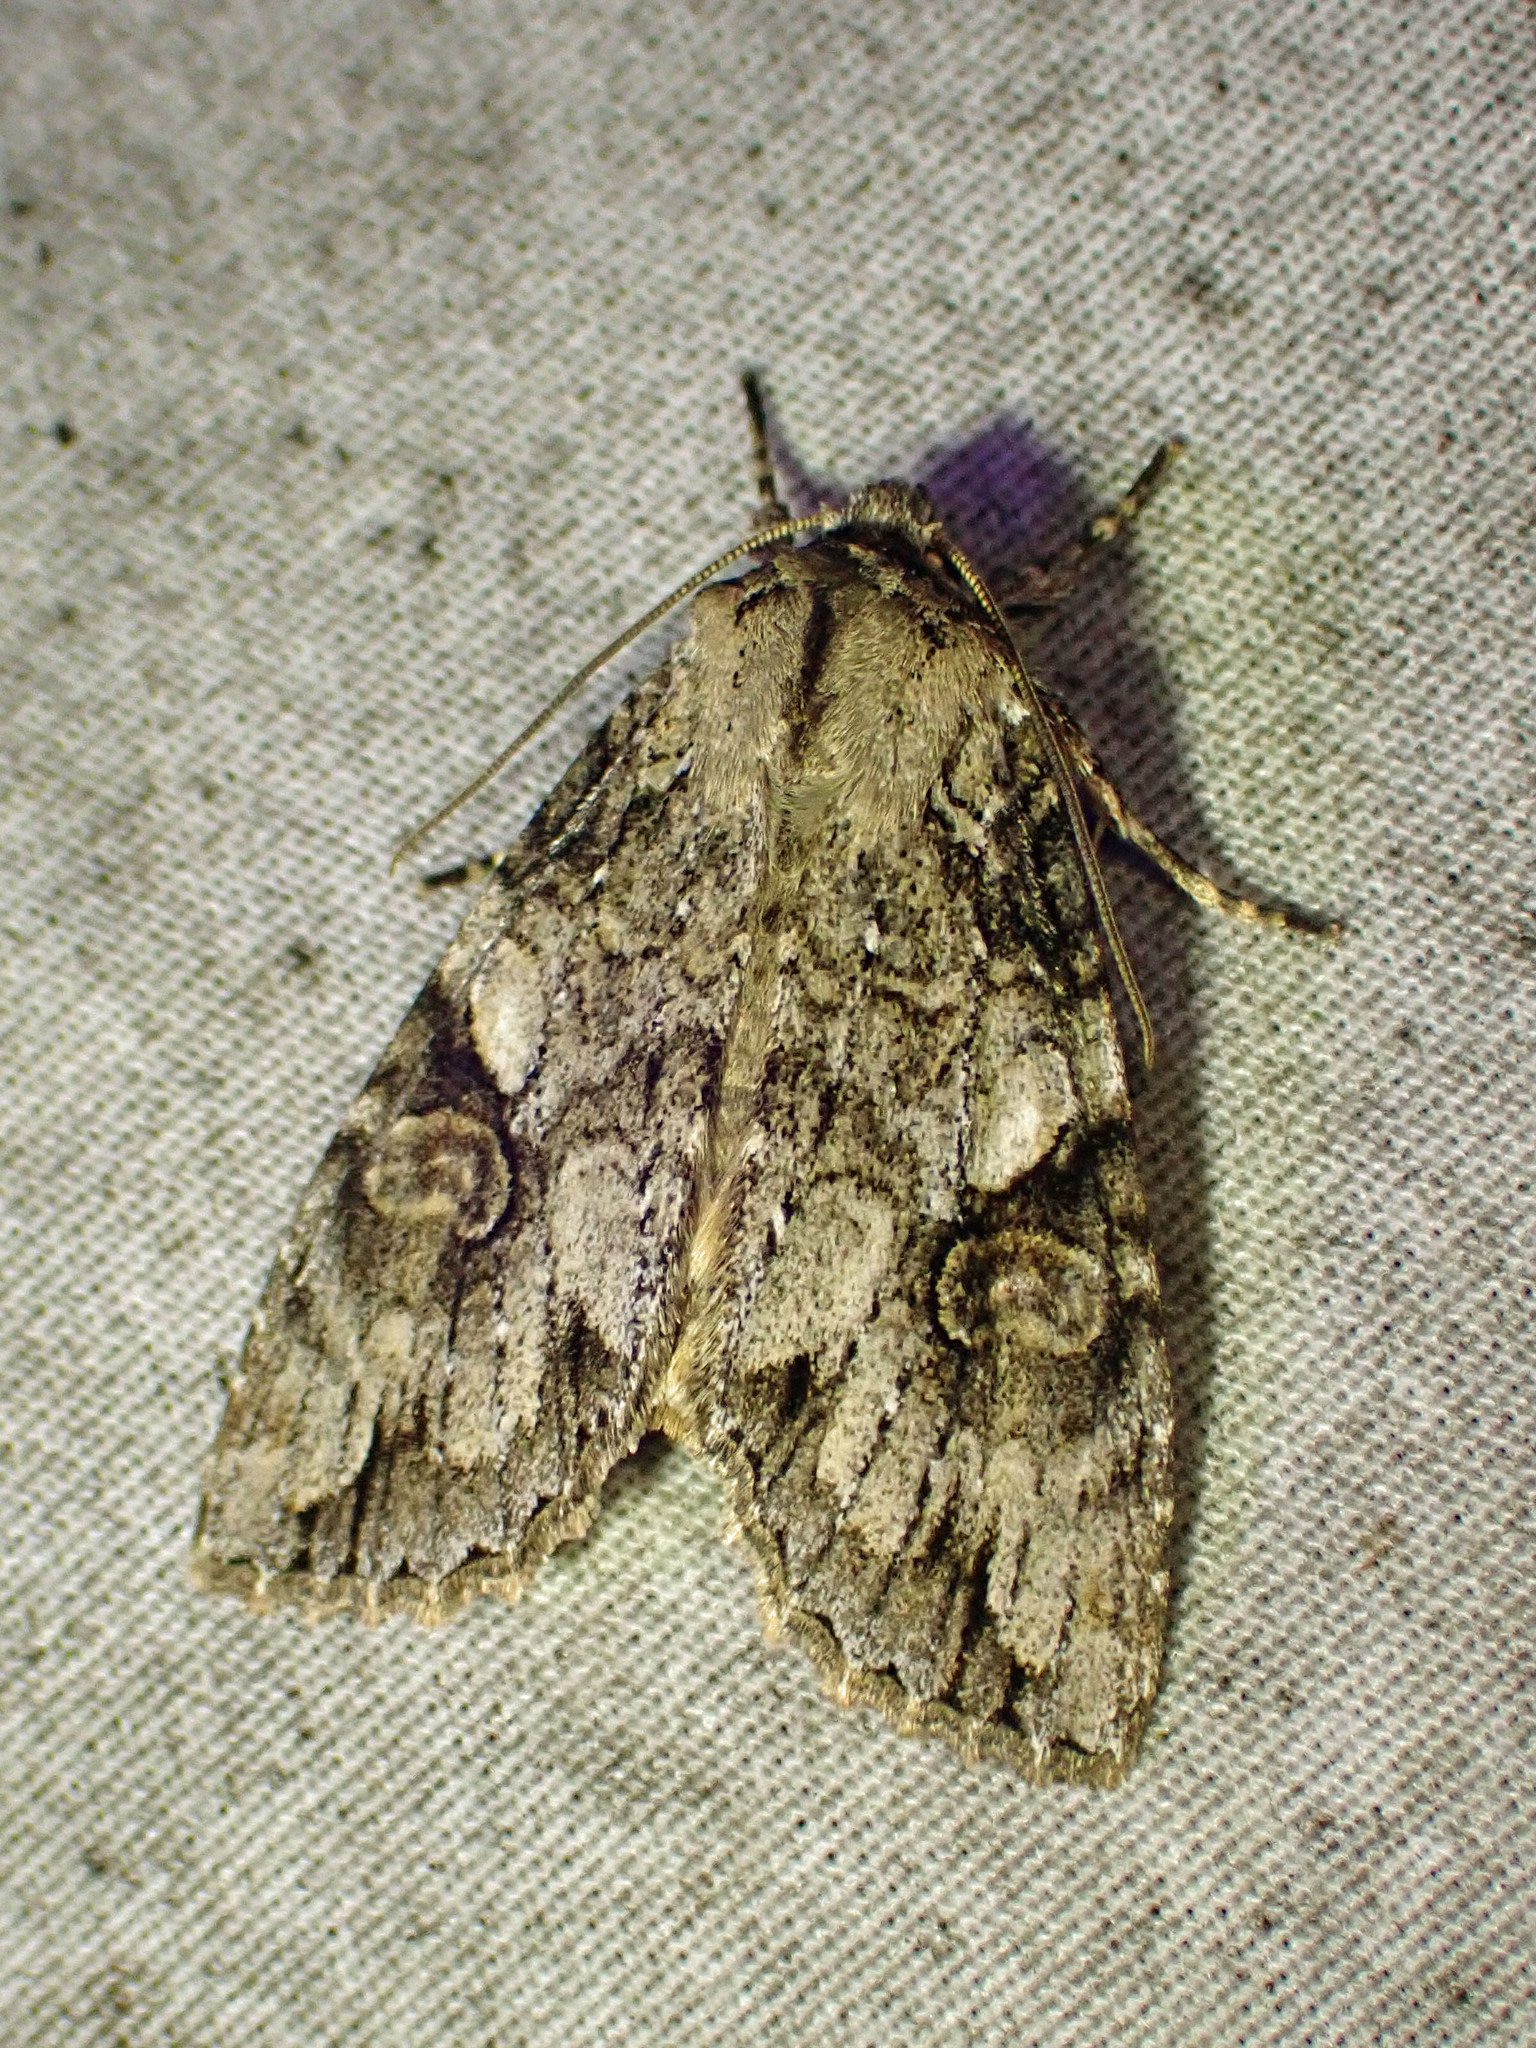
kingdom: Animalia
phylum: Arthropoda
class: Insecta
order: Lepidoptera
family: Noctuidae
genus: Achatia
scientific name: Achatia latex
